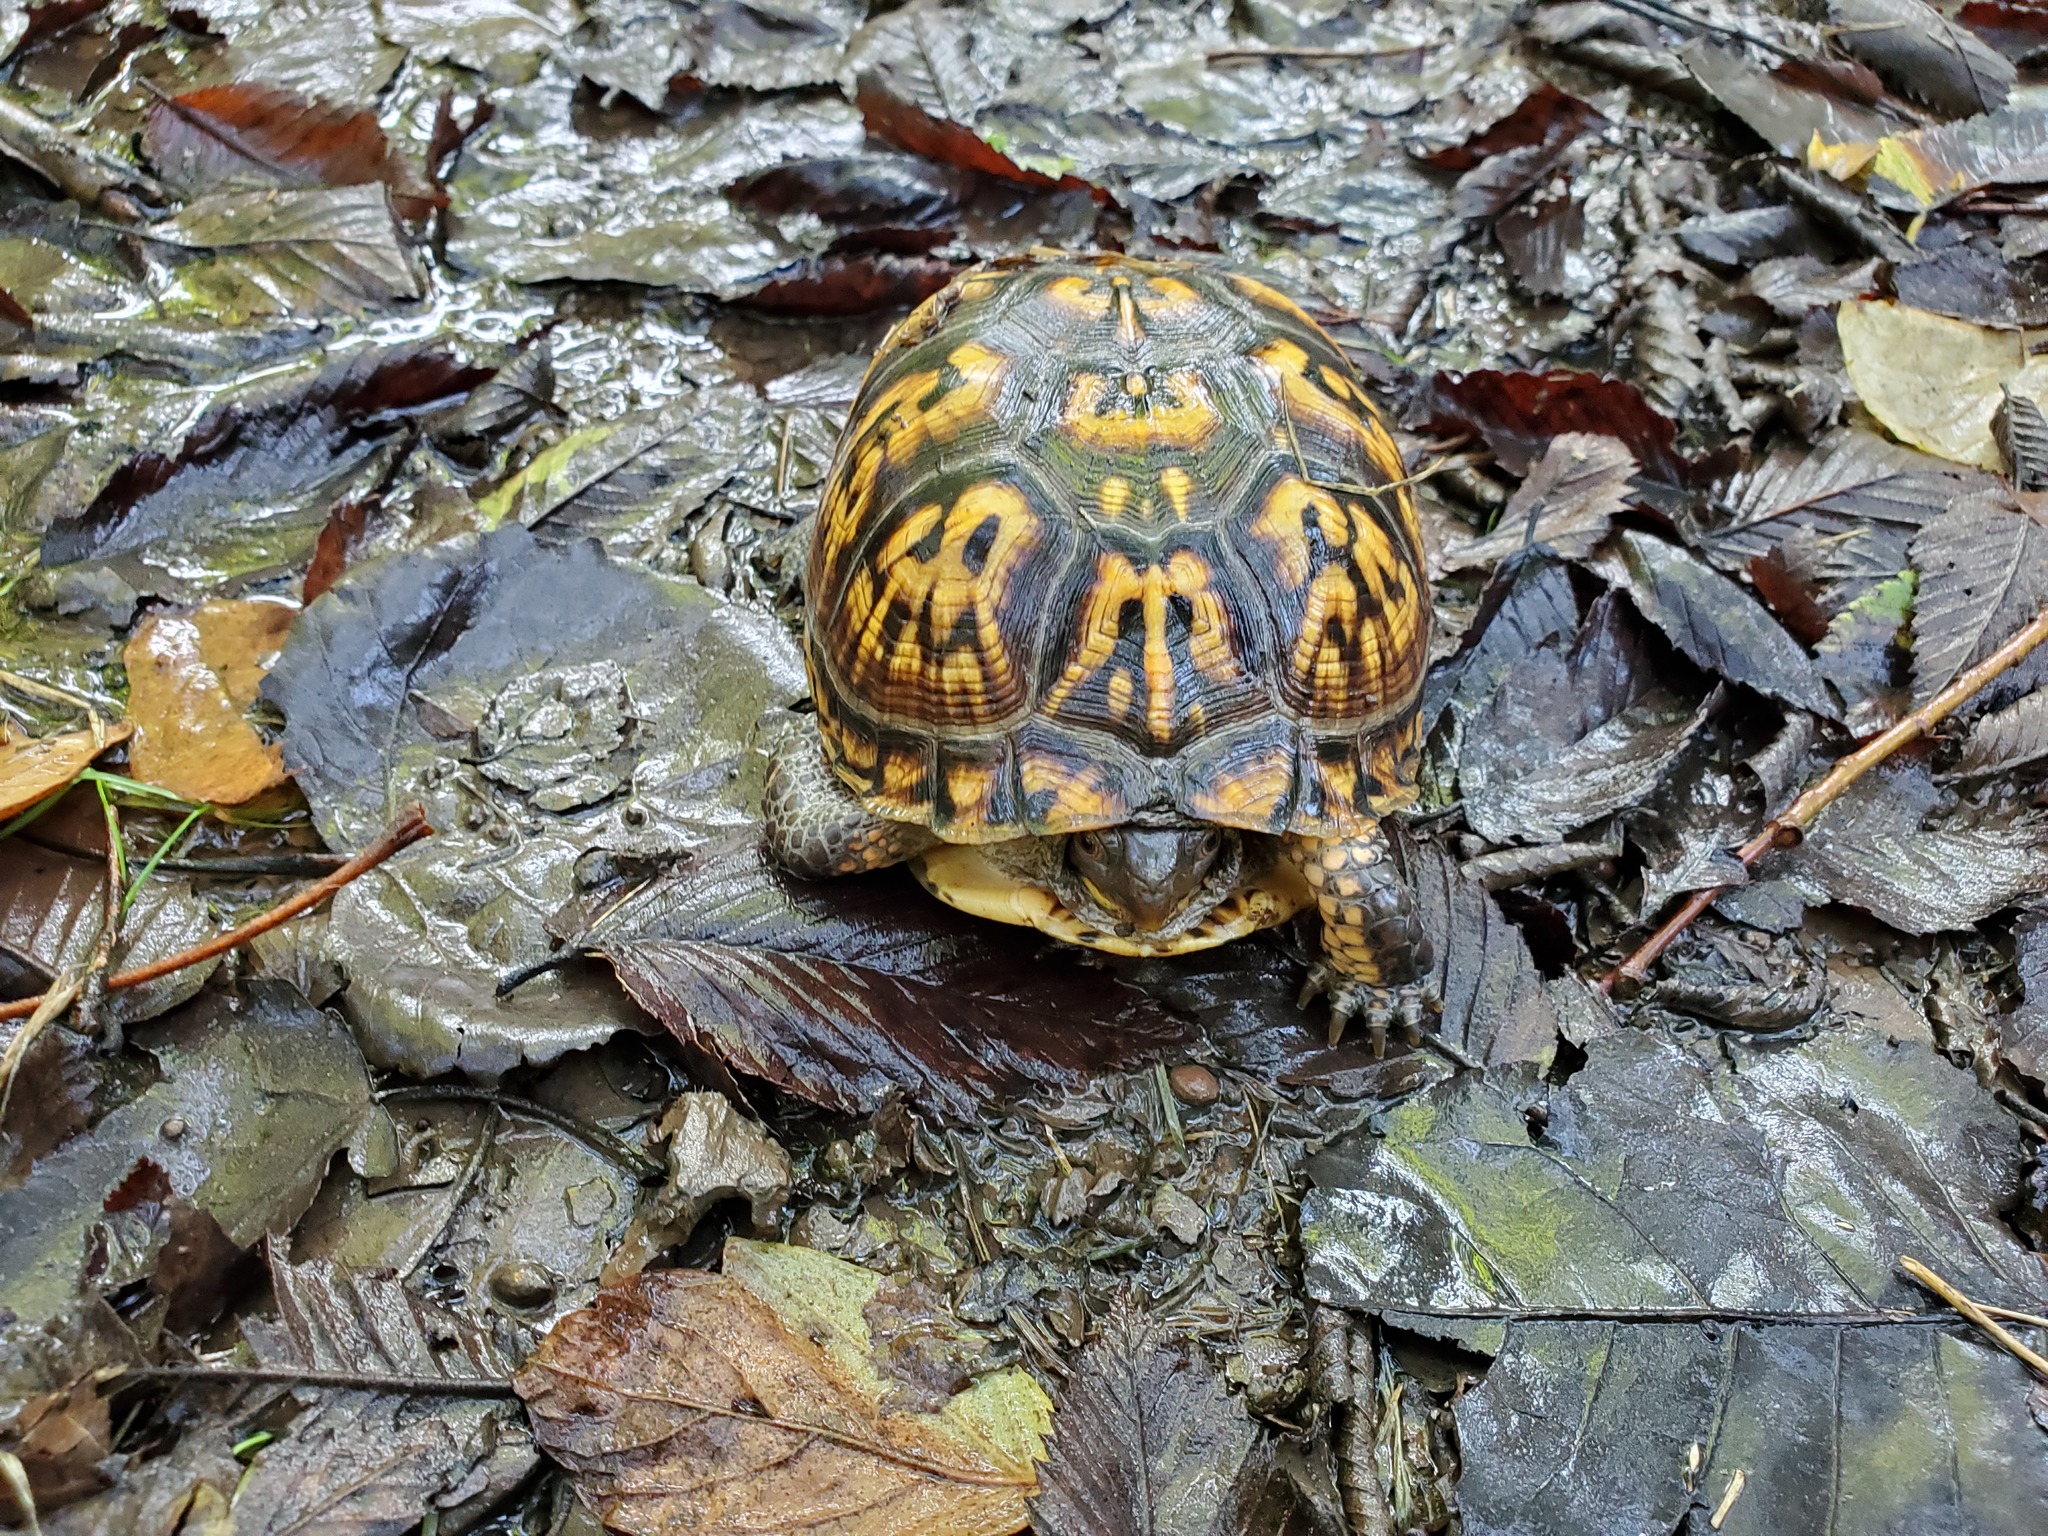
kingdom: Animalia
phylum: Chordata
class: Testudines
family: Emydidae
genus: Terrapene
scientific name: Terrapene carolina
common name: Common box turtle
